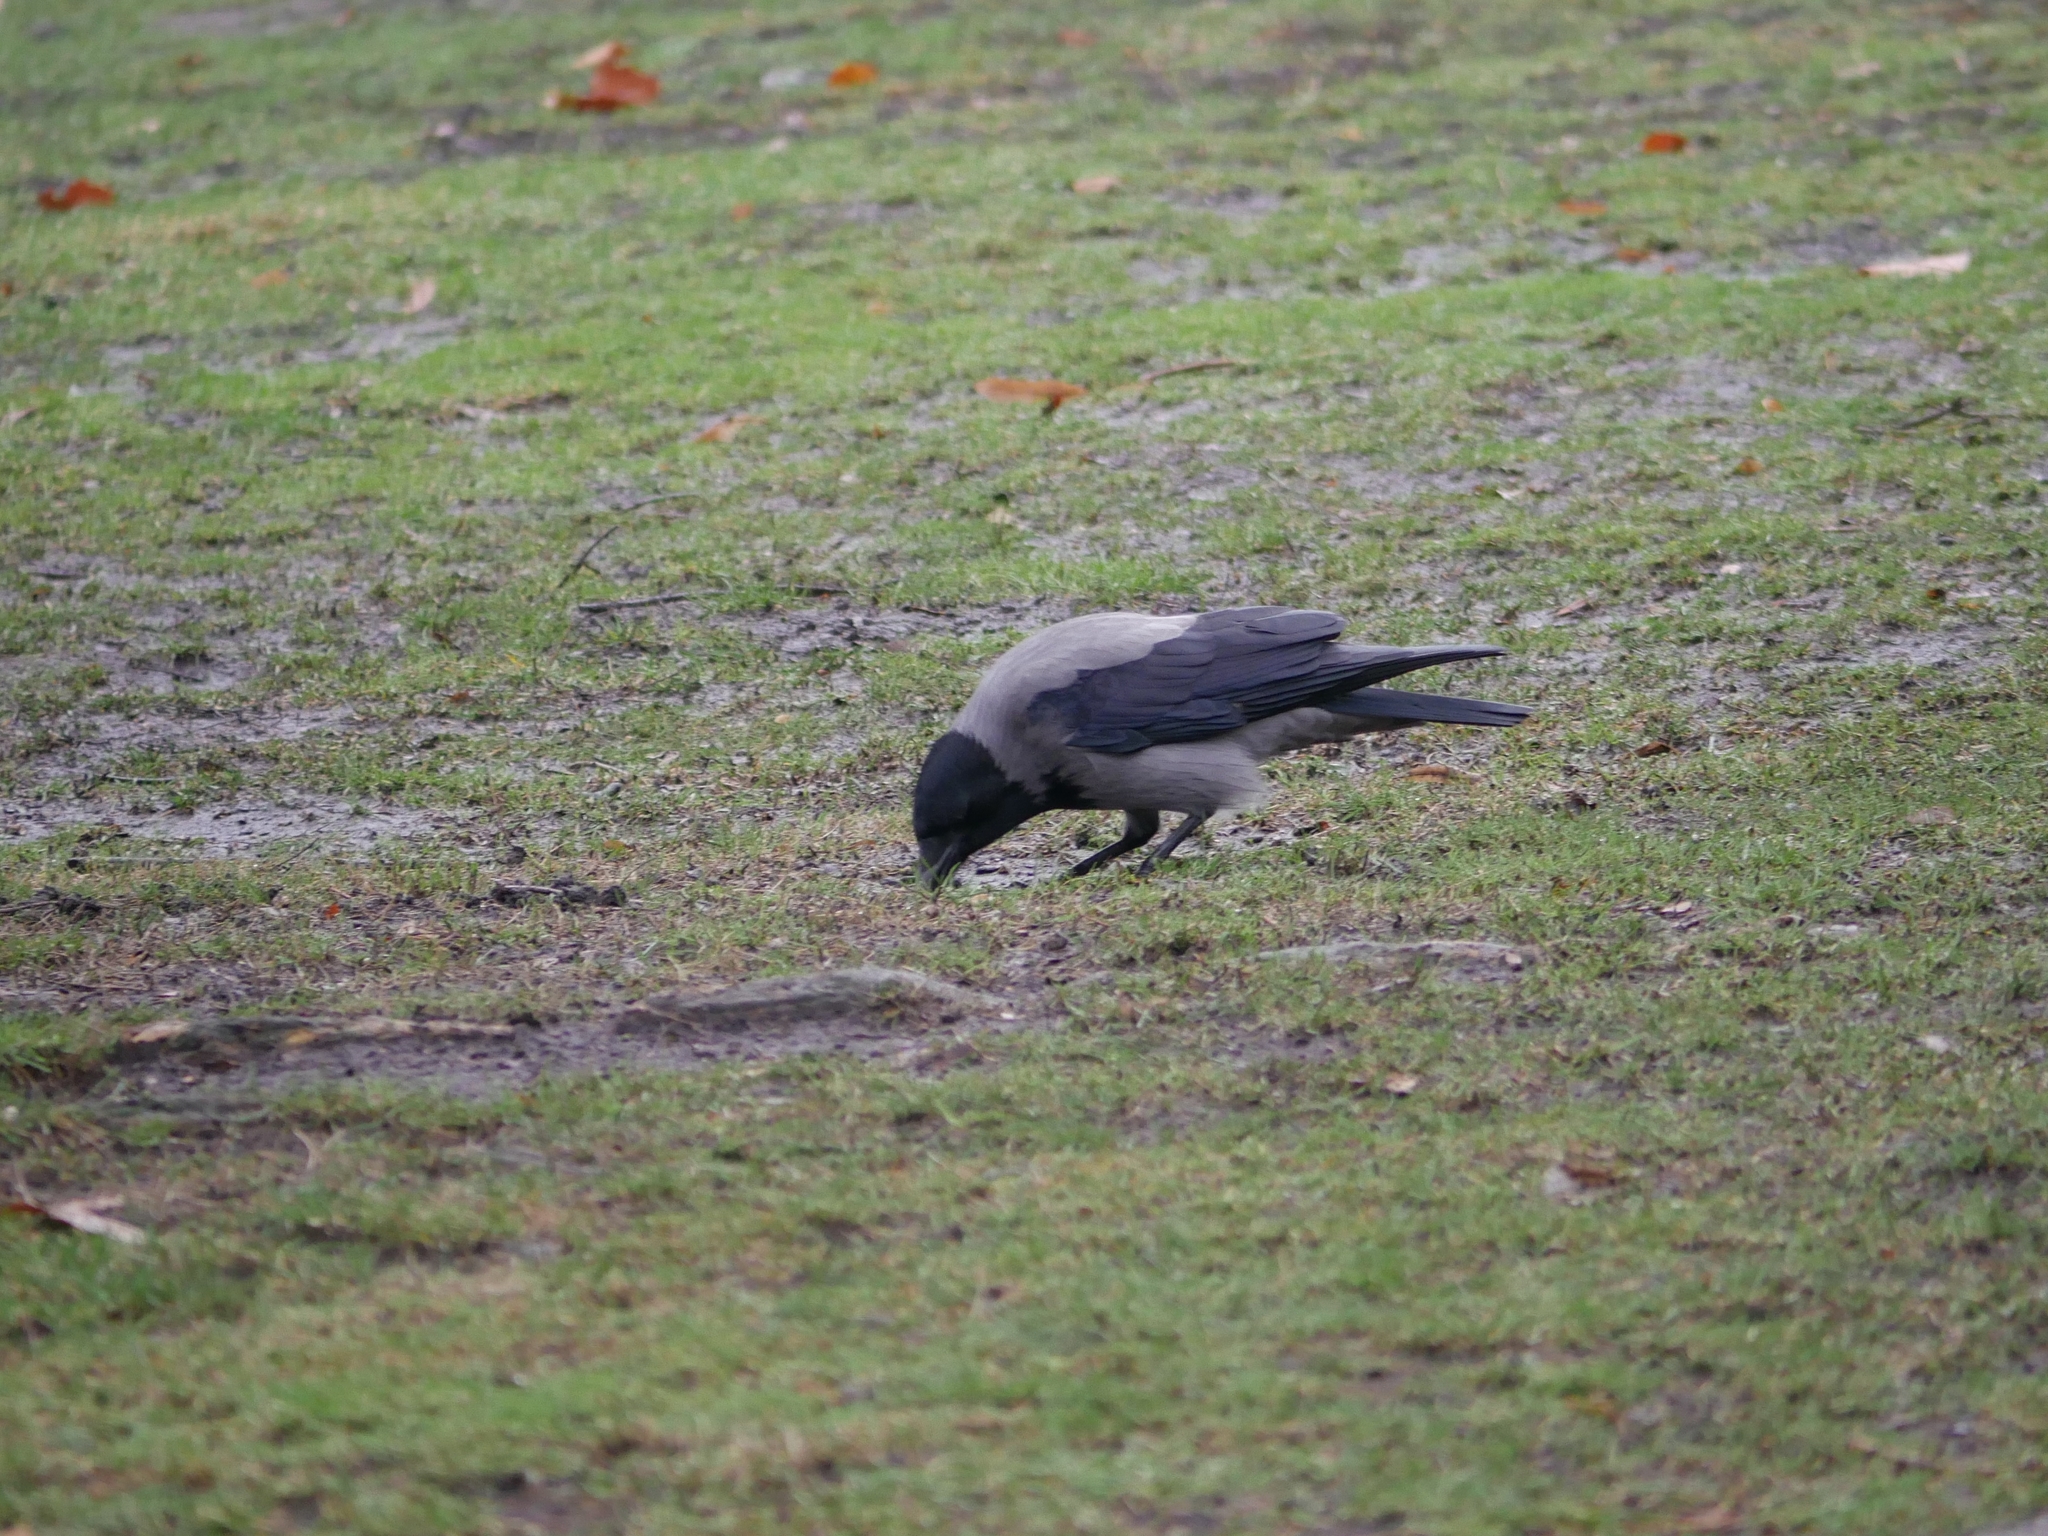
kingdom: Animalia
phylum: Chordata
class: Aves
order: Passeriformes
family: Corvidae
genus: Corvus
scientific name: Corvus cornix
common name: Hooded crow
